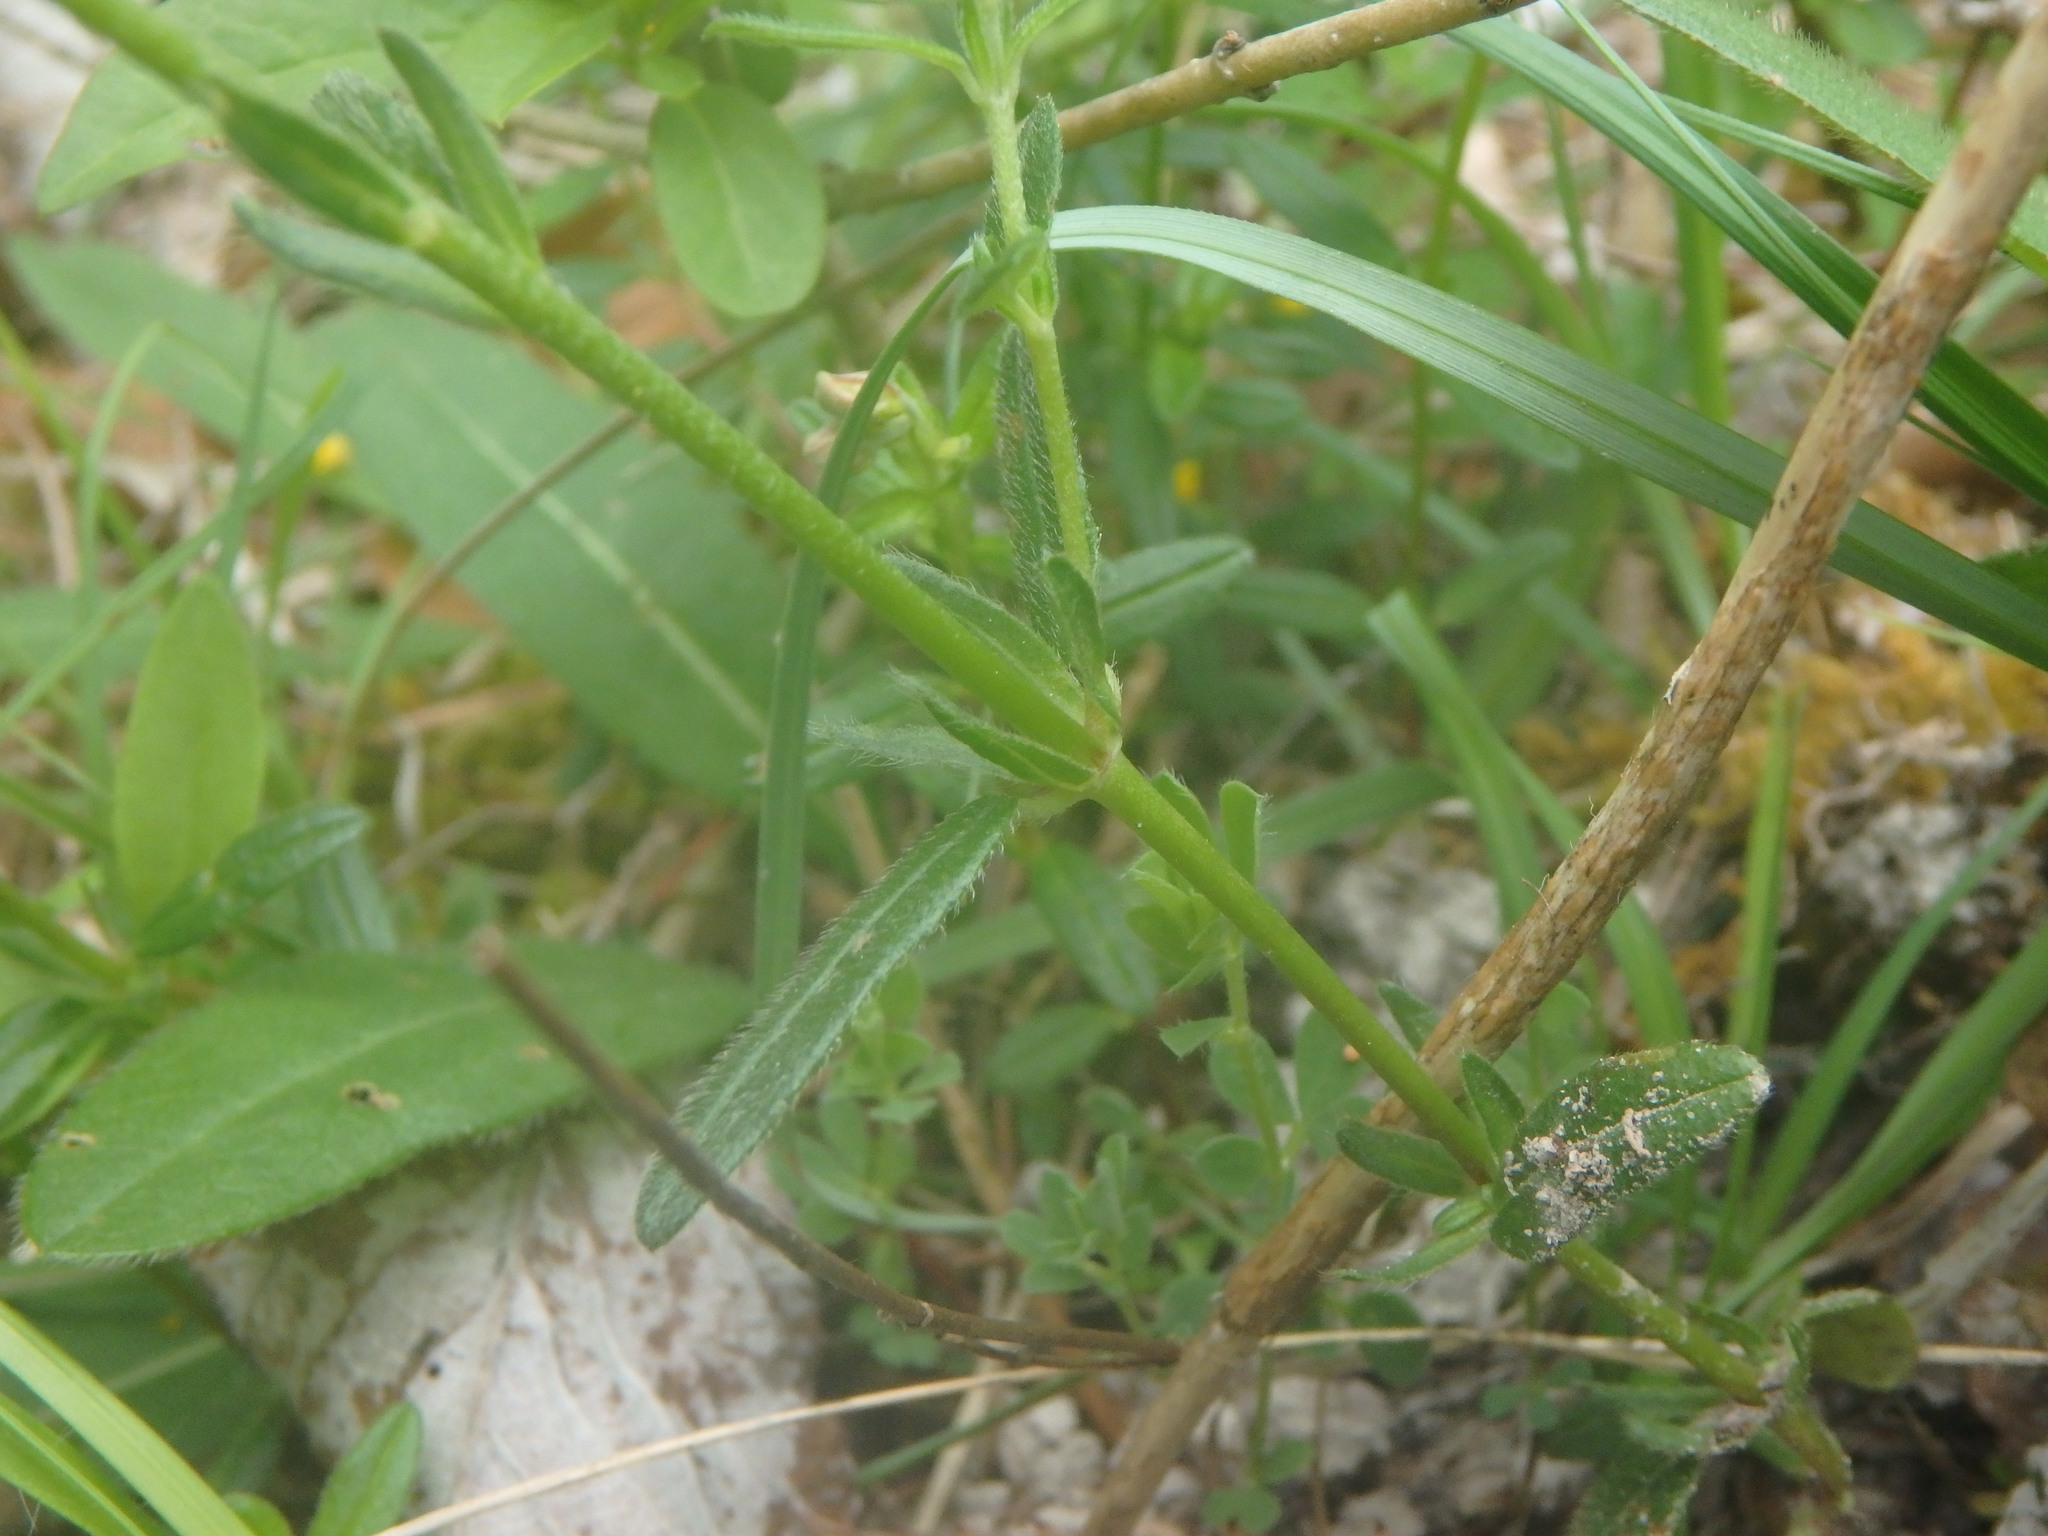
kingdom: Plantae
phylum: Tracheophyta
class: Magnoliopsida
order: Malvales
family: Cistaceae
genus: Helianthemum
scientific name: Helianthemum nummularium
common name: Common rock-rose
